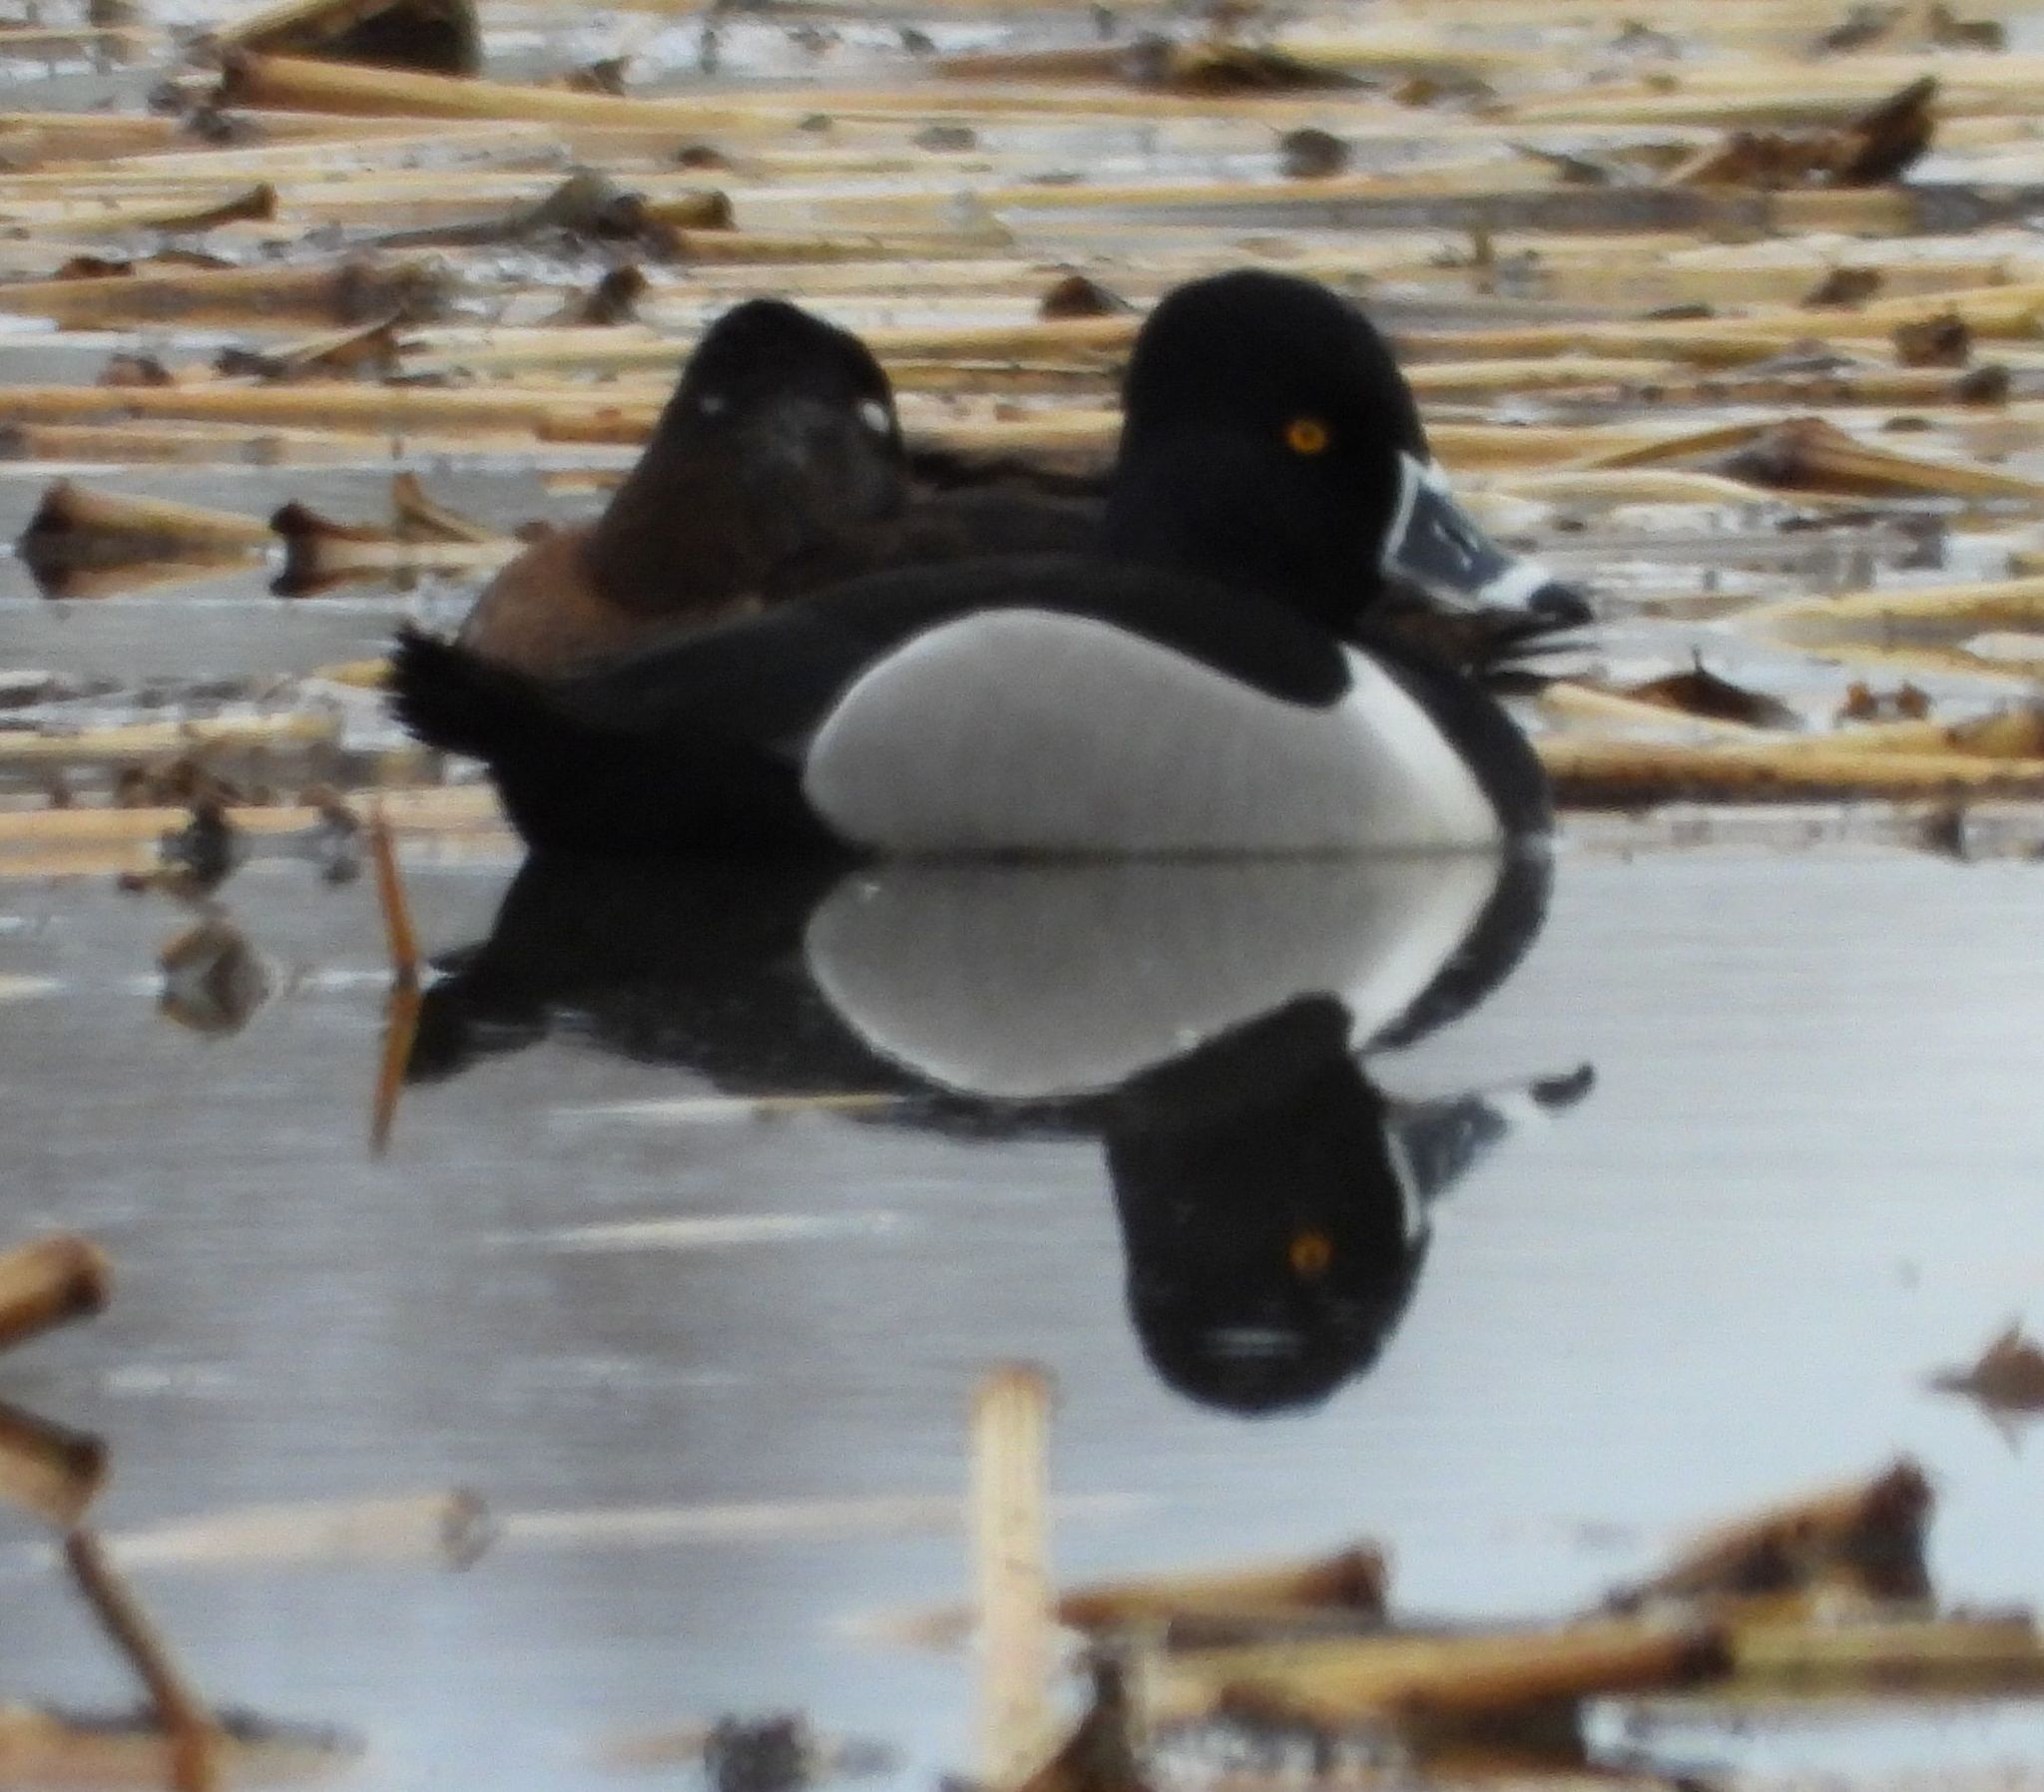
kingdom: Animalia
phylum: Chordata
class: Aves
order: Anseriformes
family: Anatidae
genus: Aythya
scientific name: Aythya collaris
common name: Ring-necked duck
